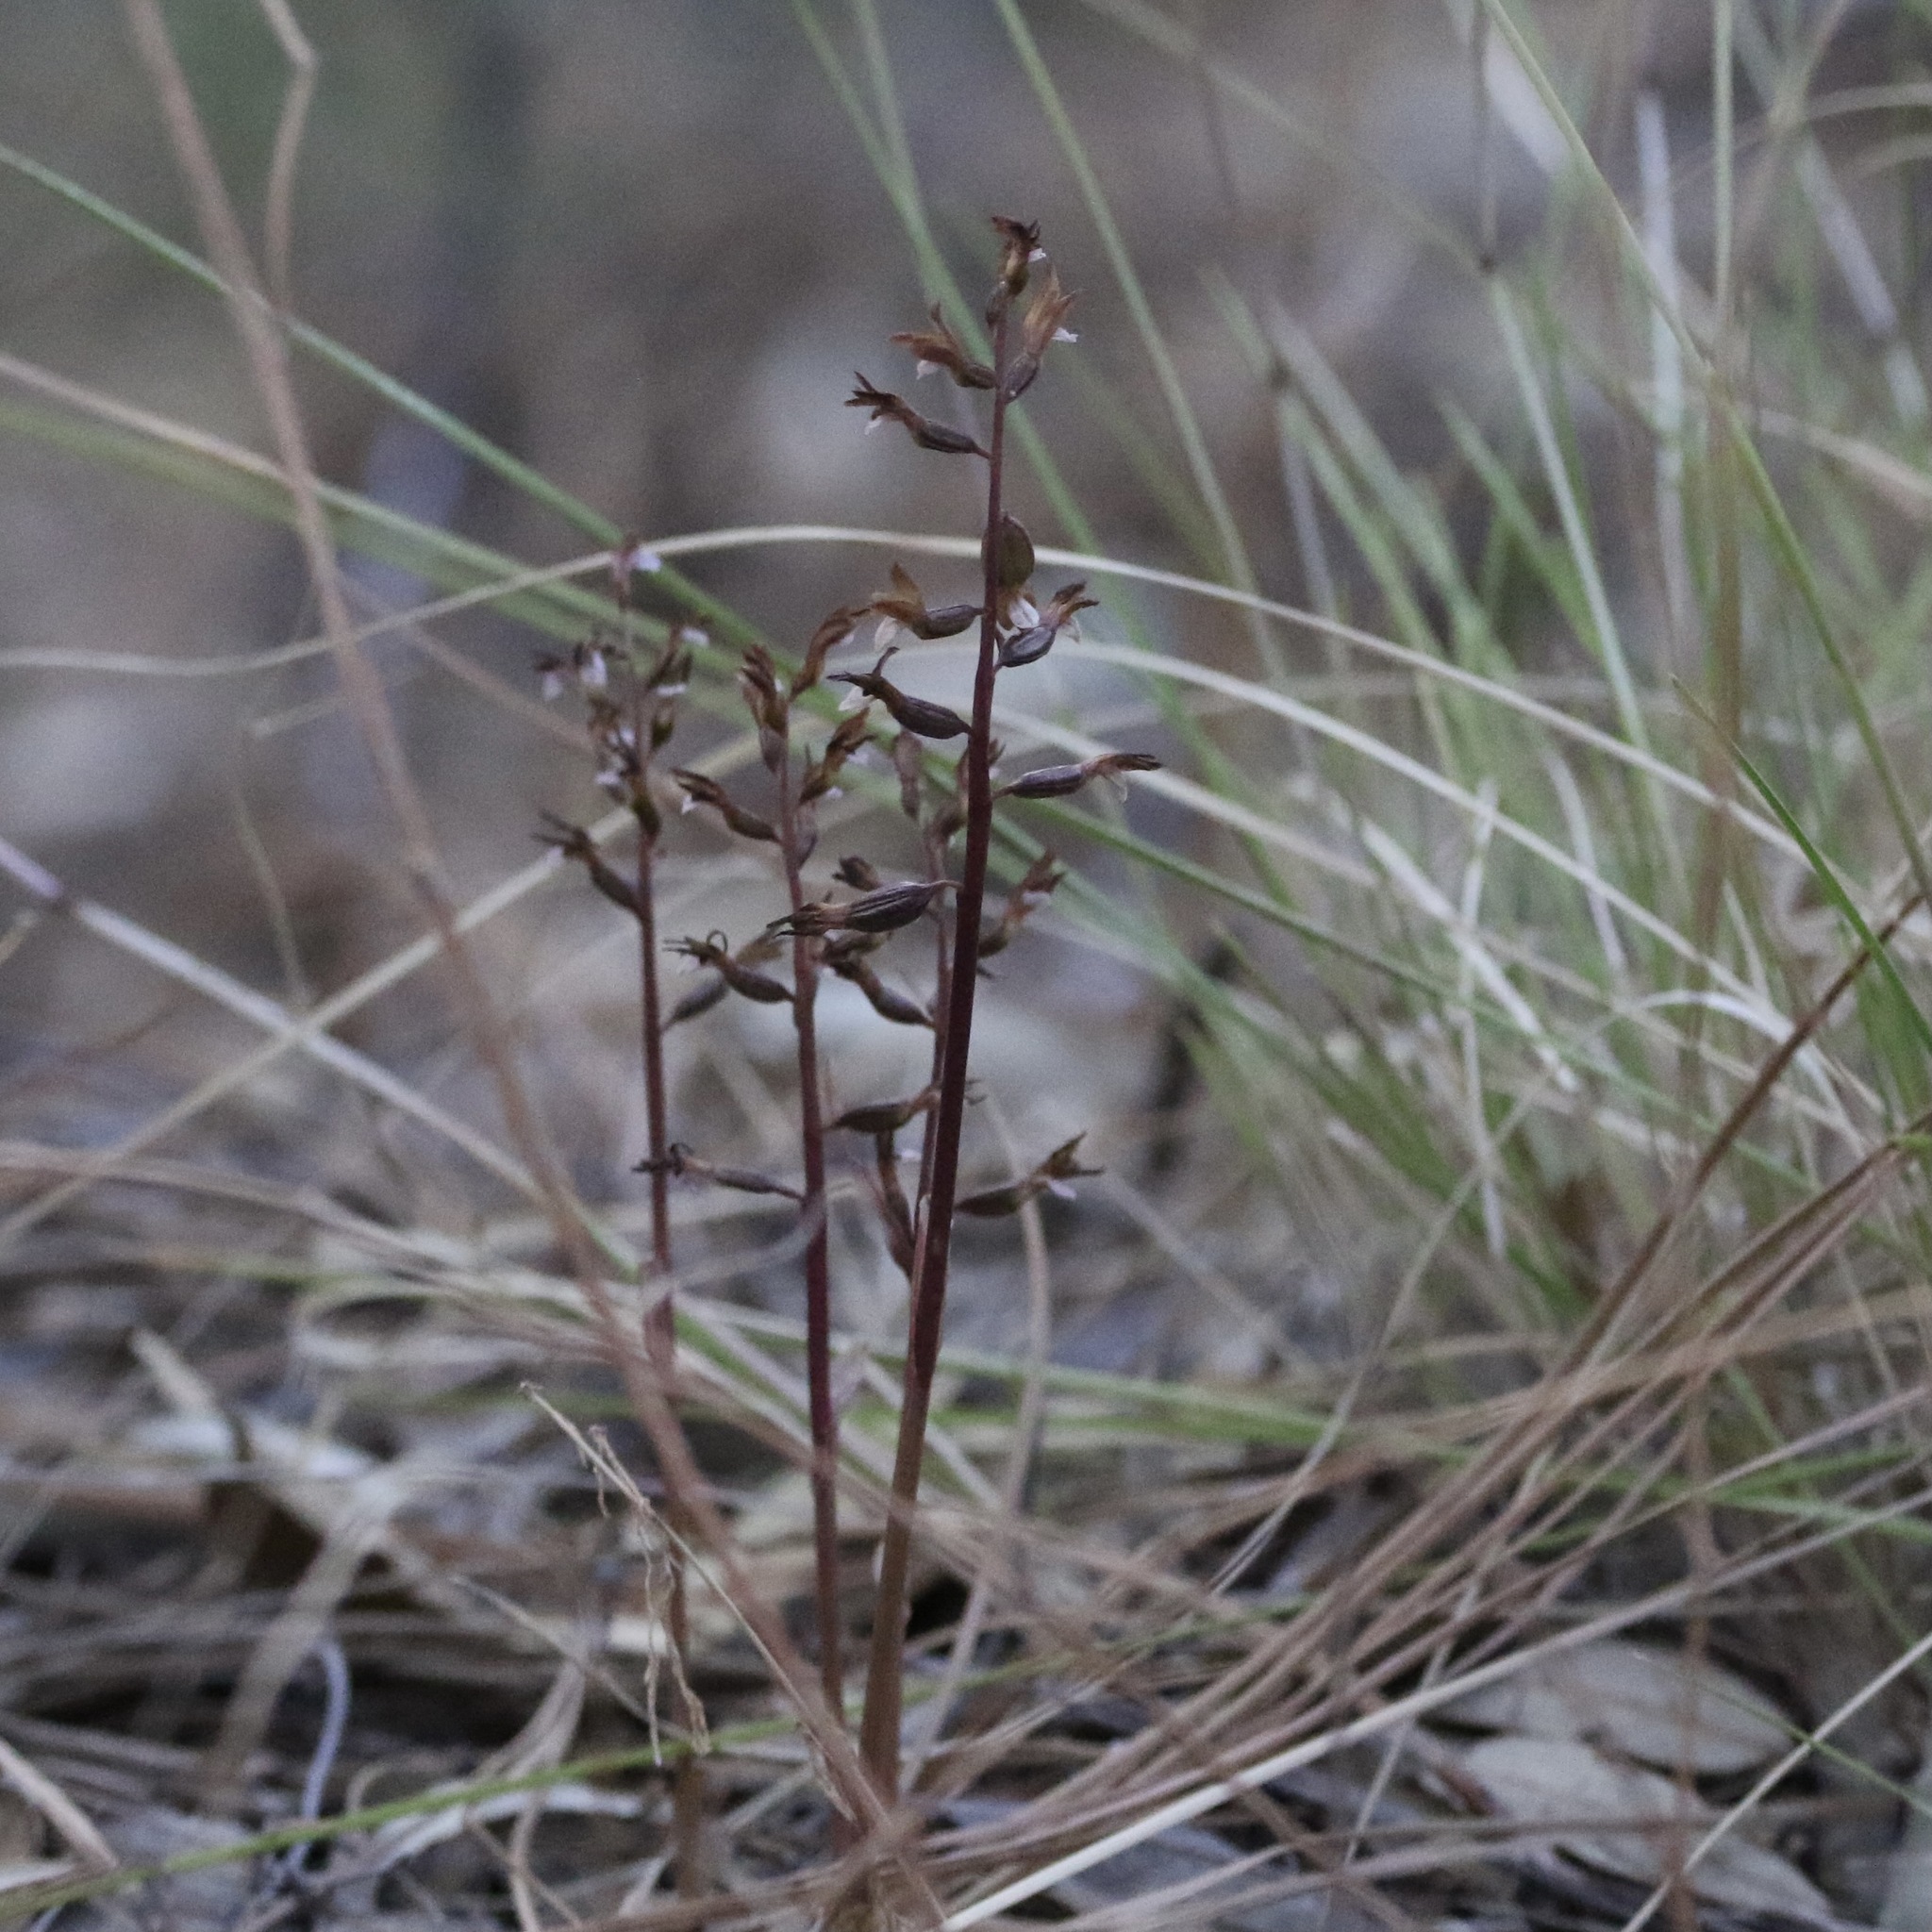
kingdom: Plantae
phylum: Tracheophyta
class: Liliopsida
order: Asparagales
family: Orchidaceae
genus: Corallorhiza
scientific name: Corallorhiza wisteriana
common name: Spring coralroot
